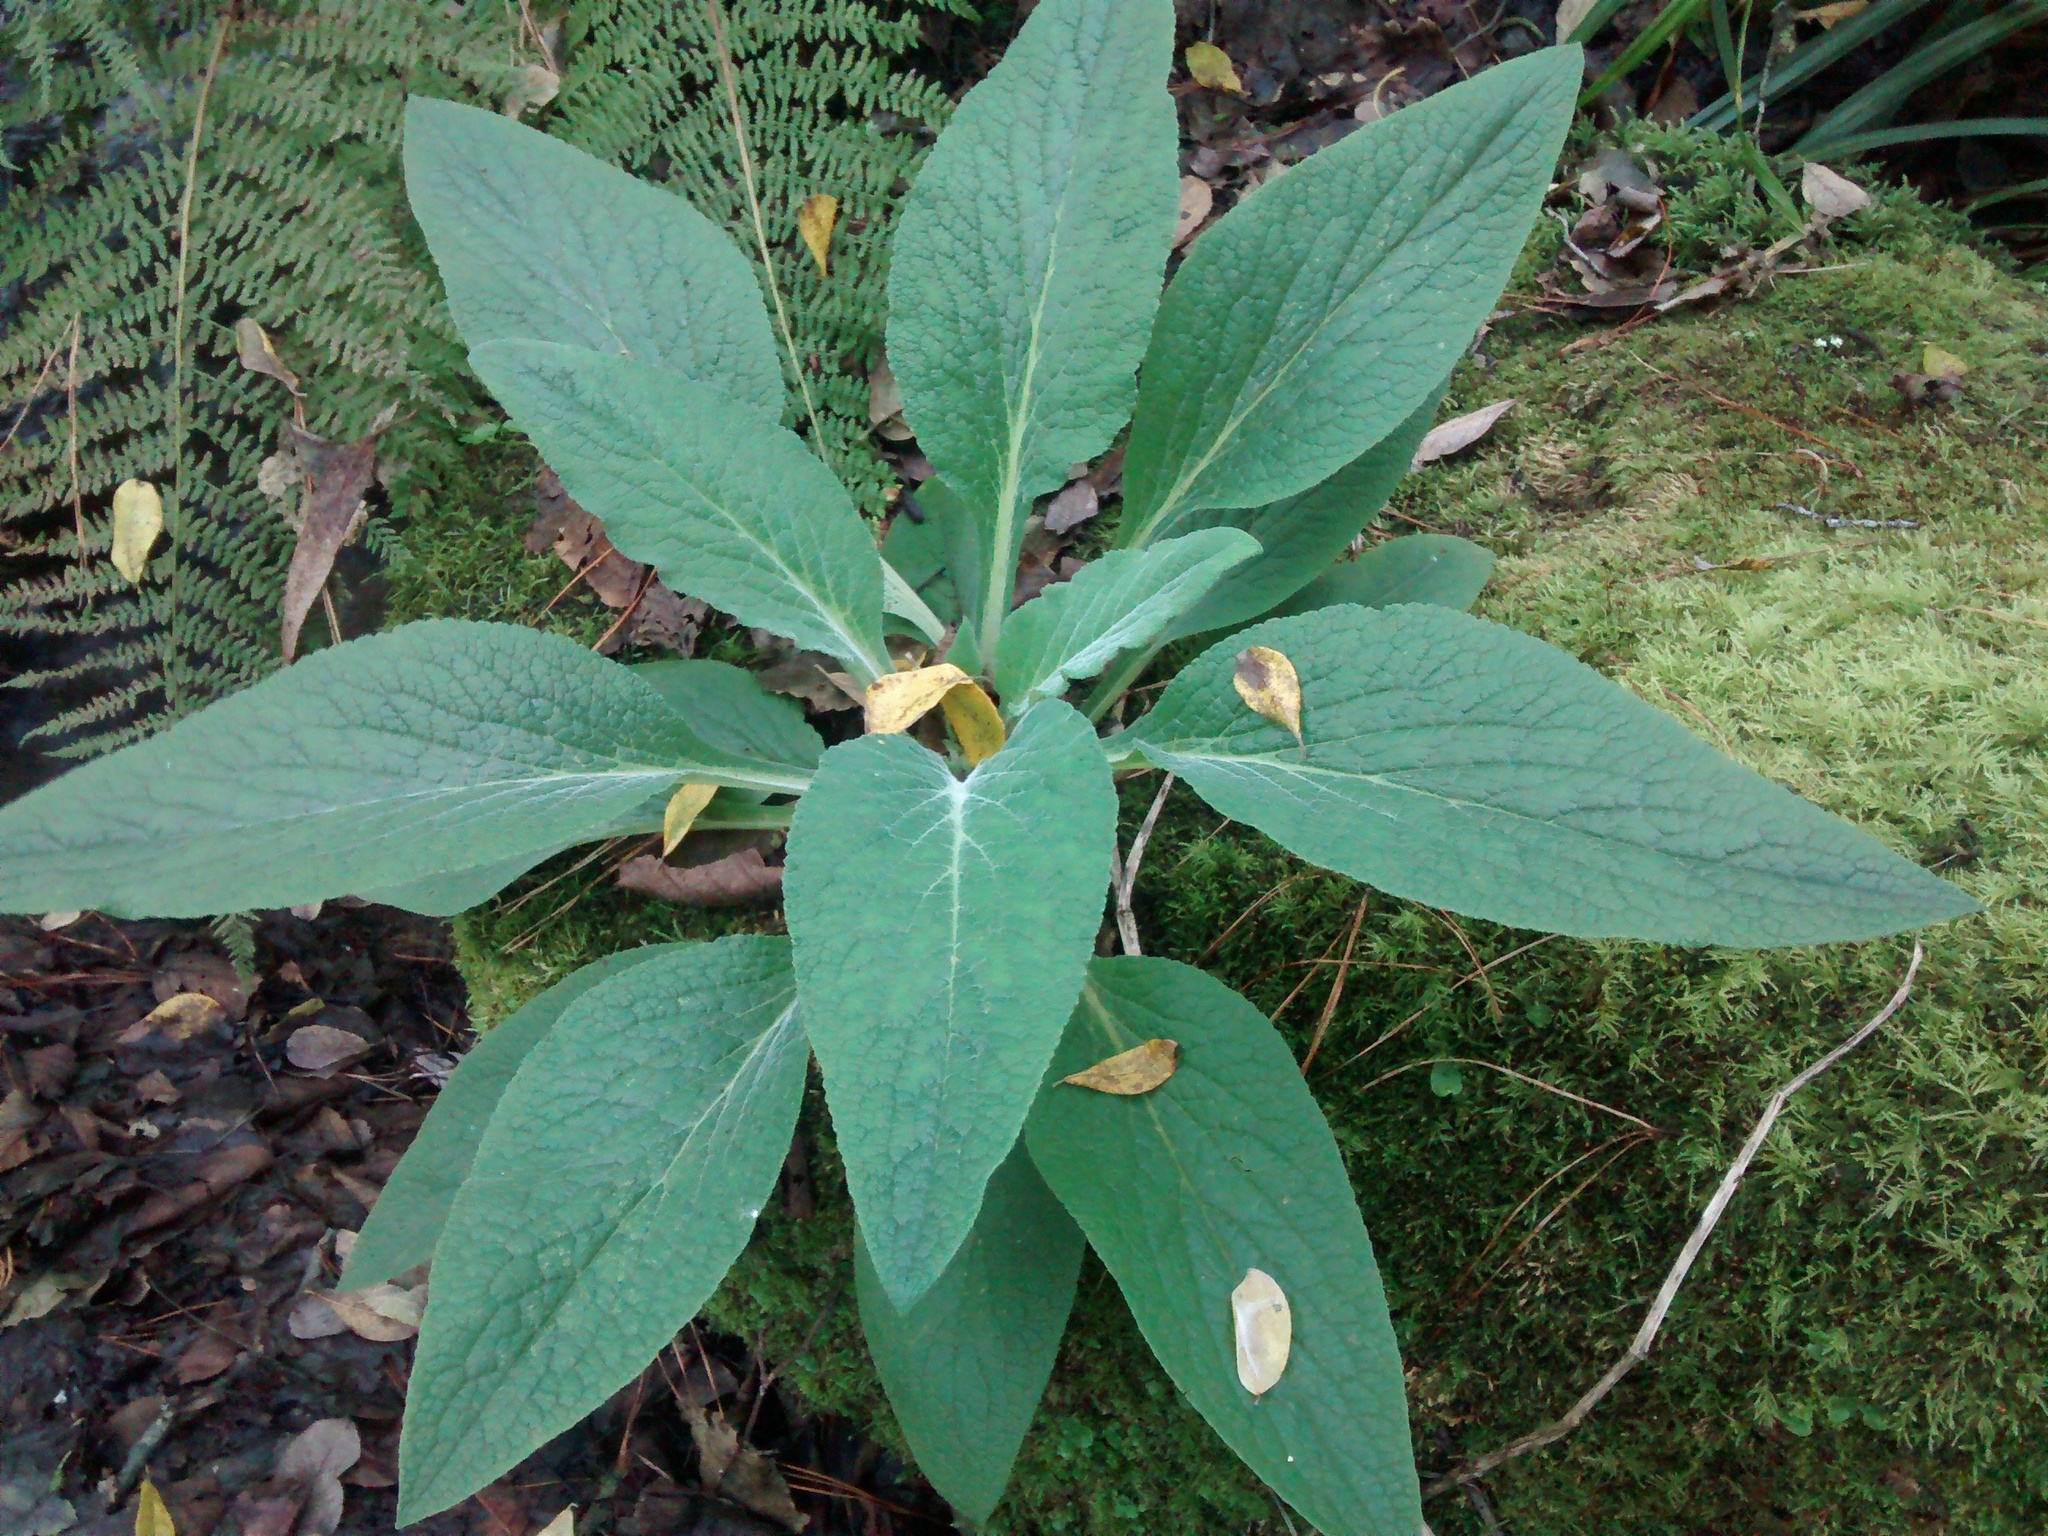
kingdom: Plantae
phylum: Tracheophyta
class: Magnoliopsida
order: Lamiales
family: Plantaginaceae
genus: Digitalis
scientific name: Digitalis purpurea
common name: Foxglove
